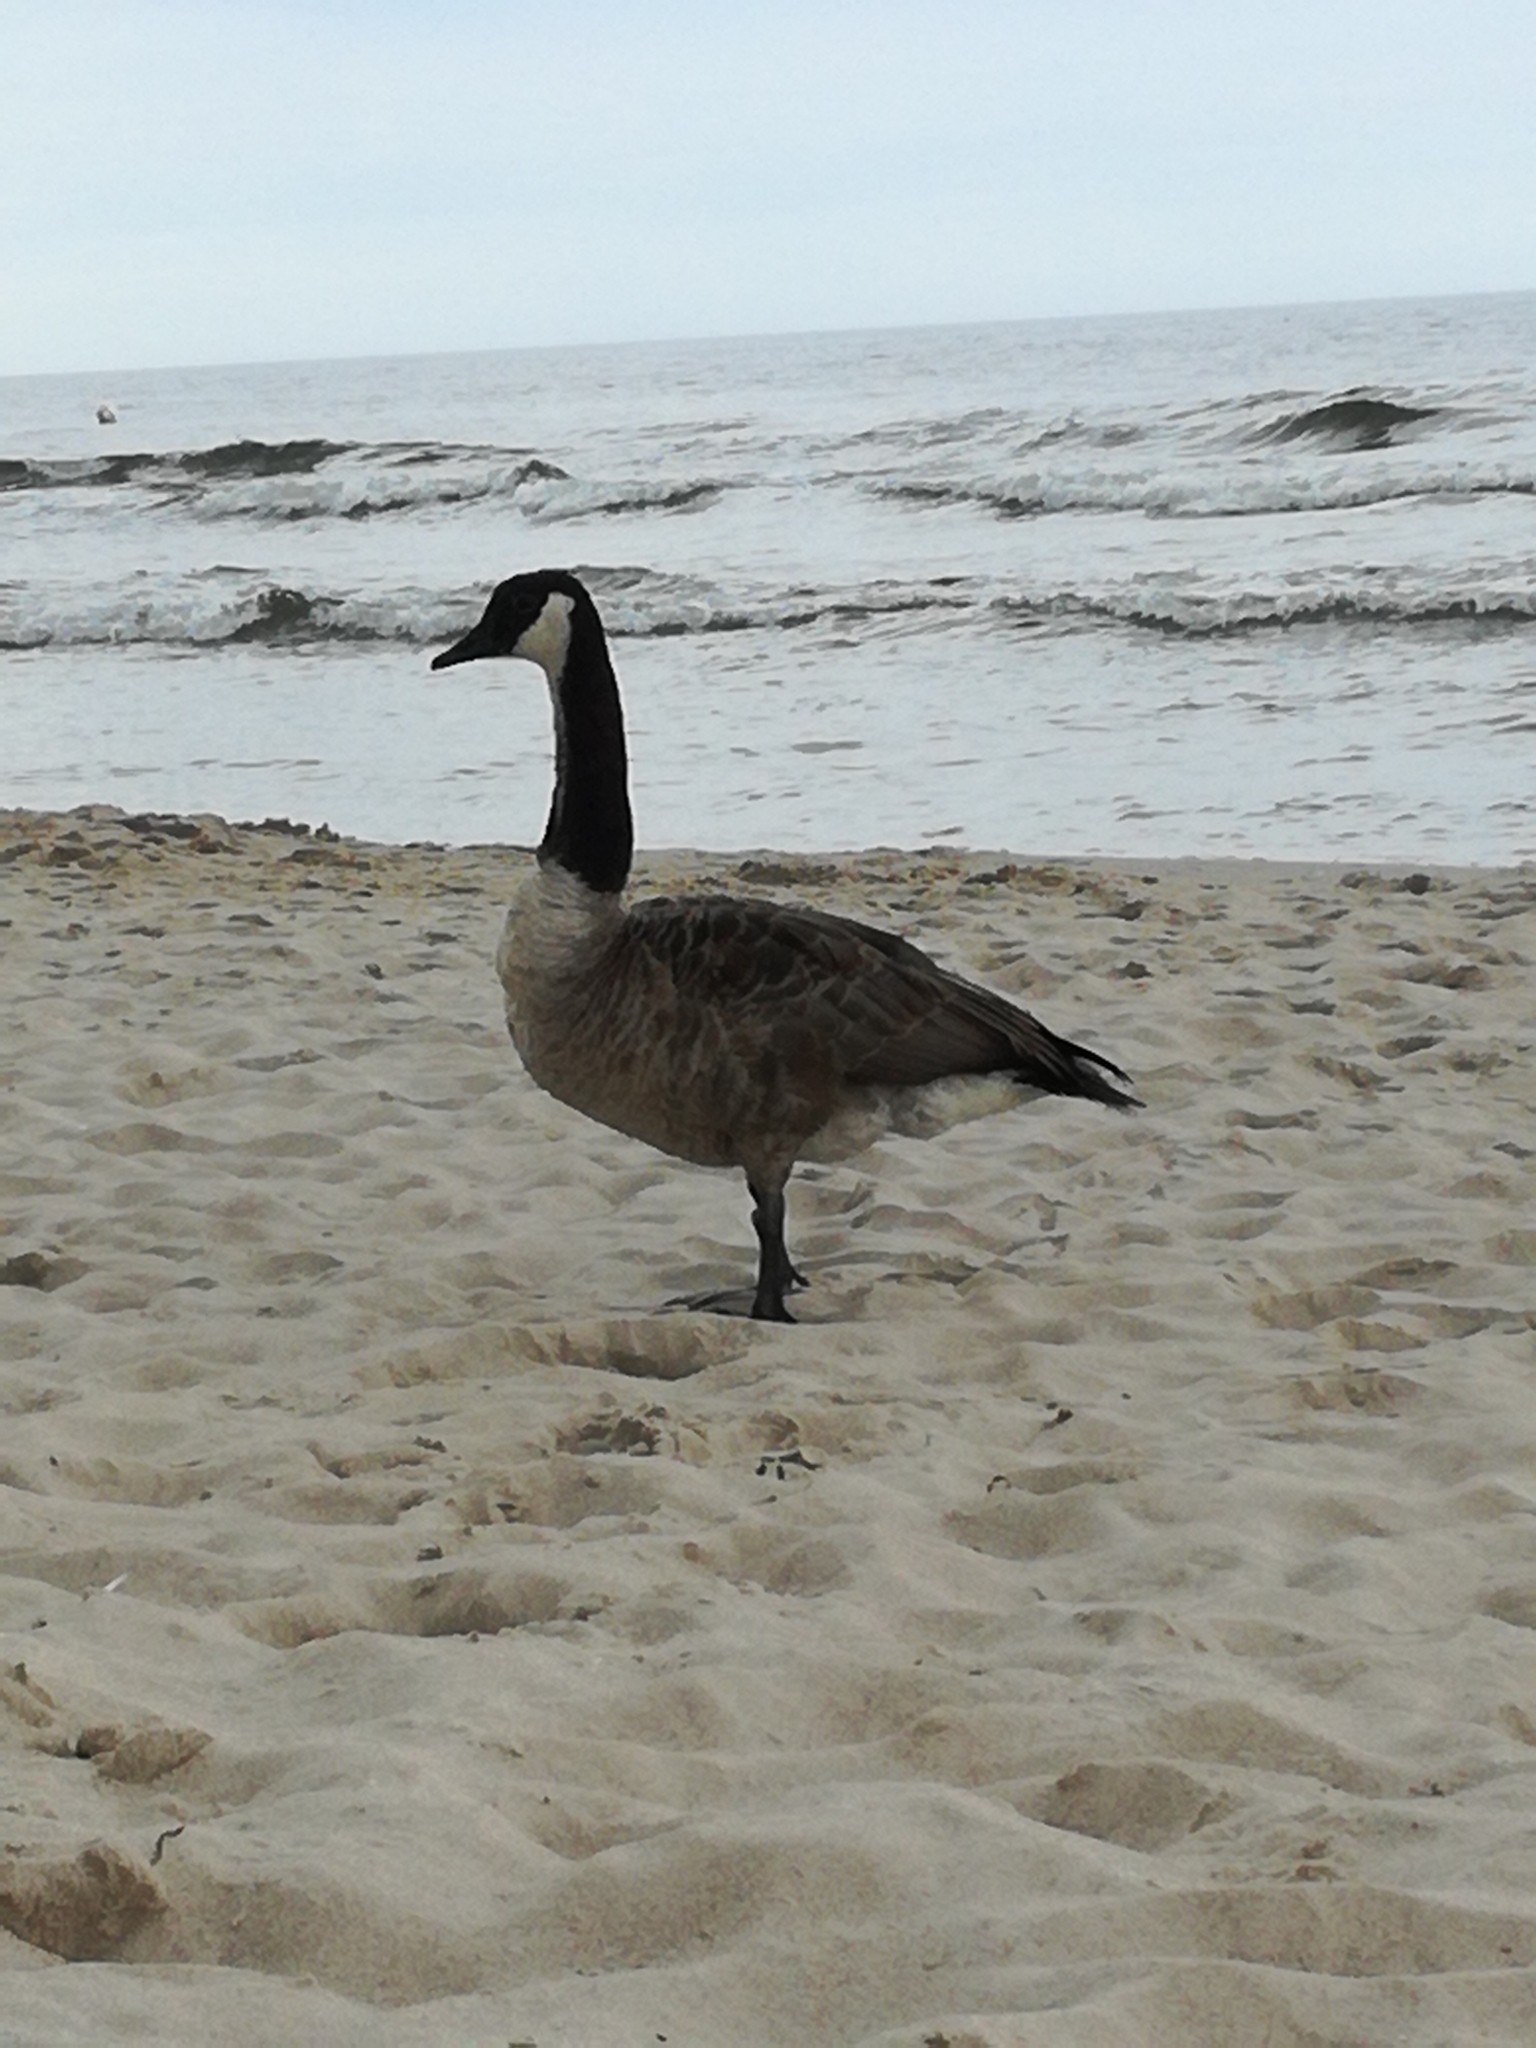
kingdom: Animalia
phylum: Chordata
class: Aves
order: Anseriformes
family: Anatidae
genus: Branta
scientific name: Branta canadensis
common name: Canada goose
